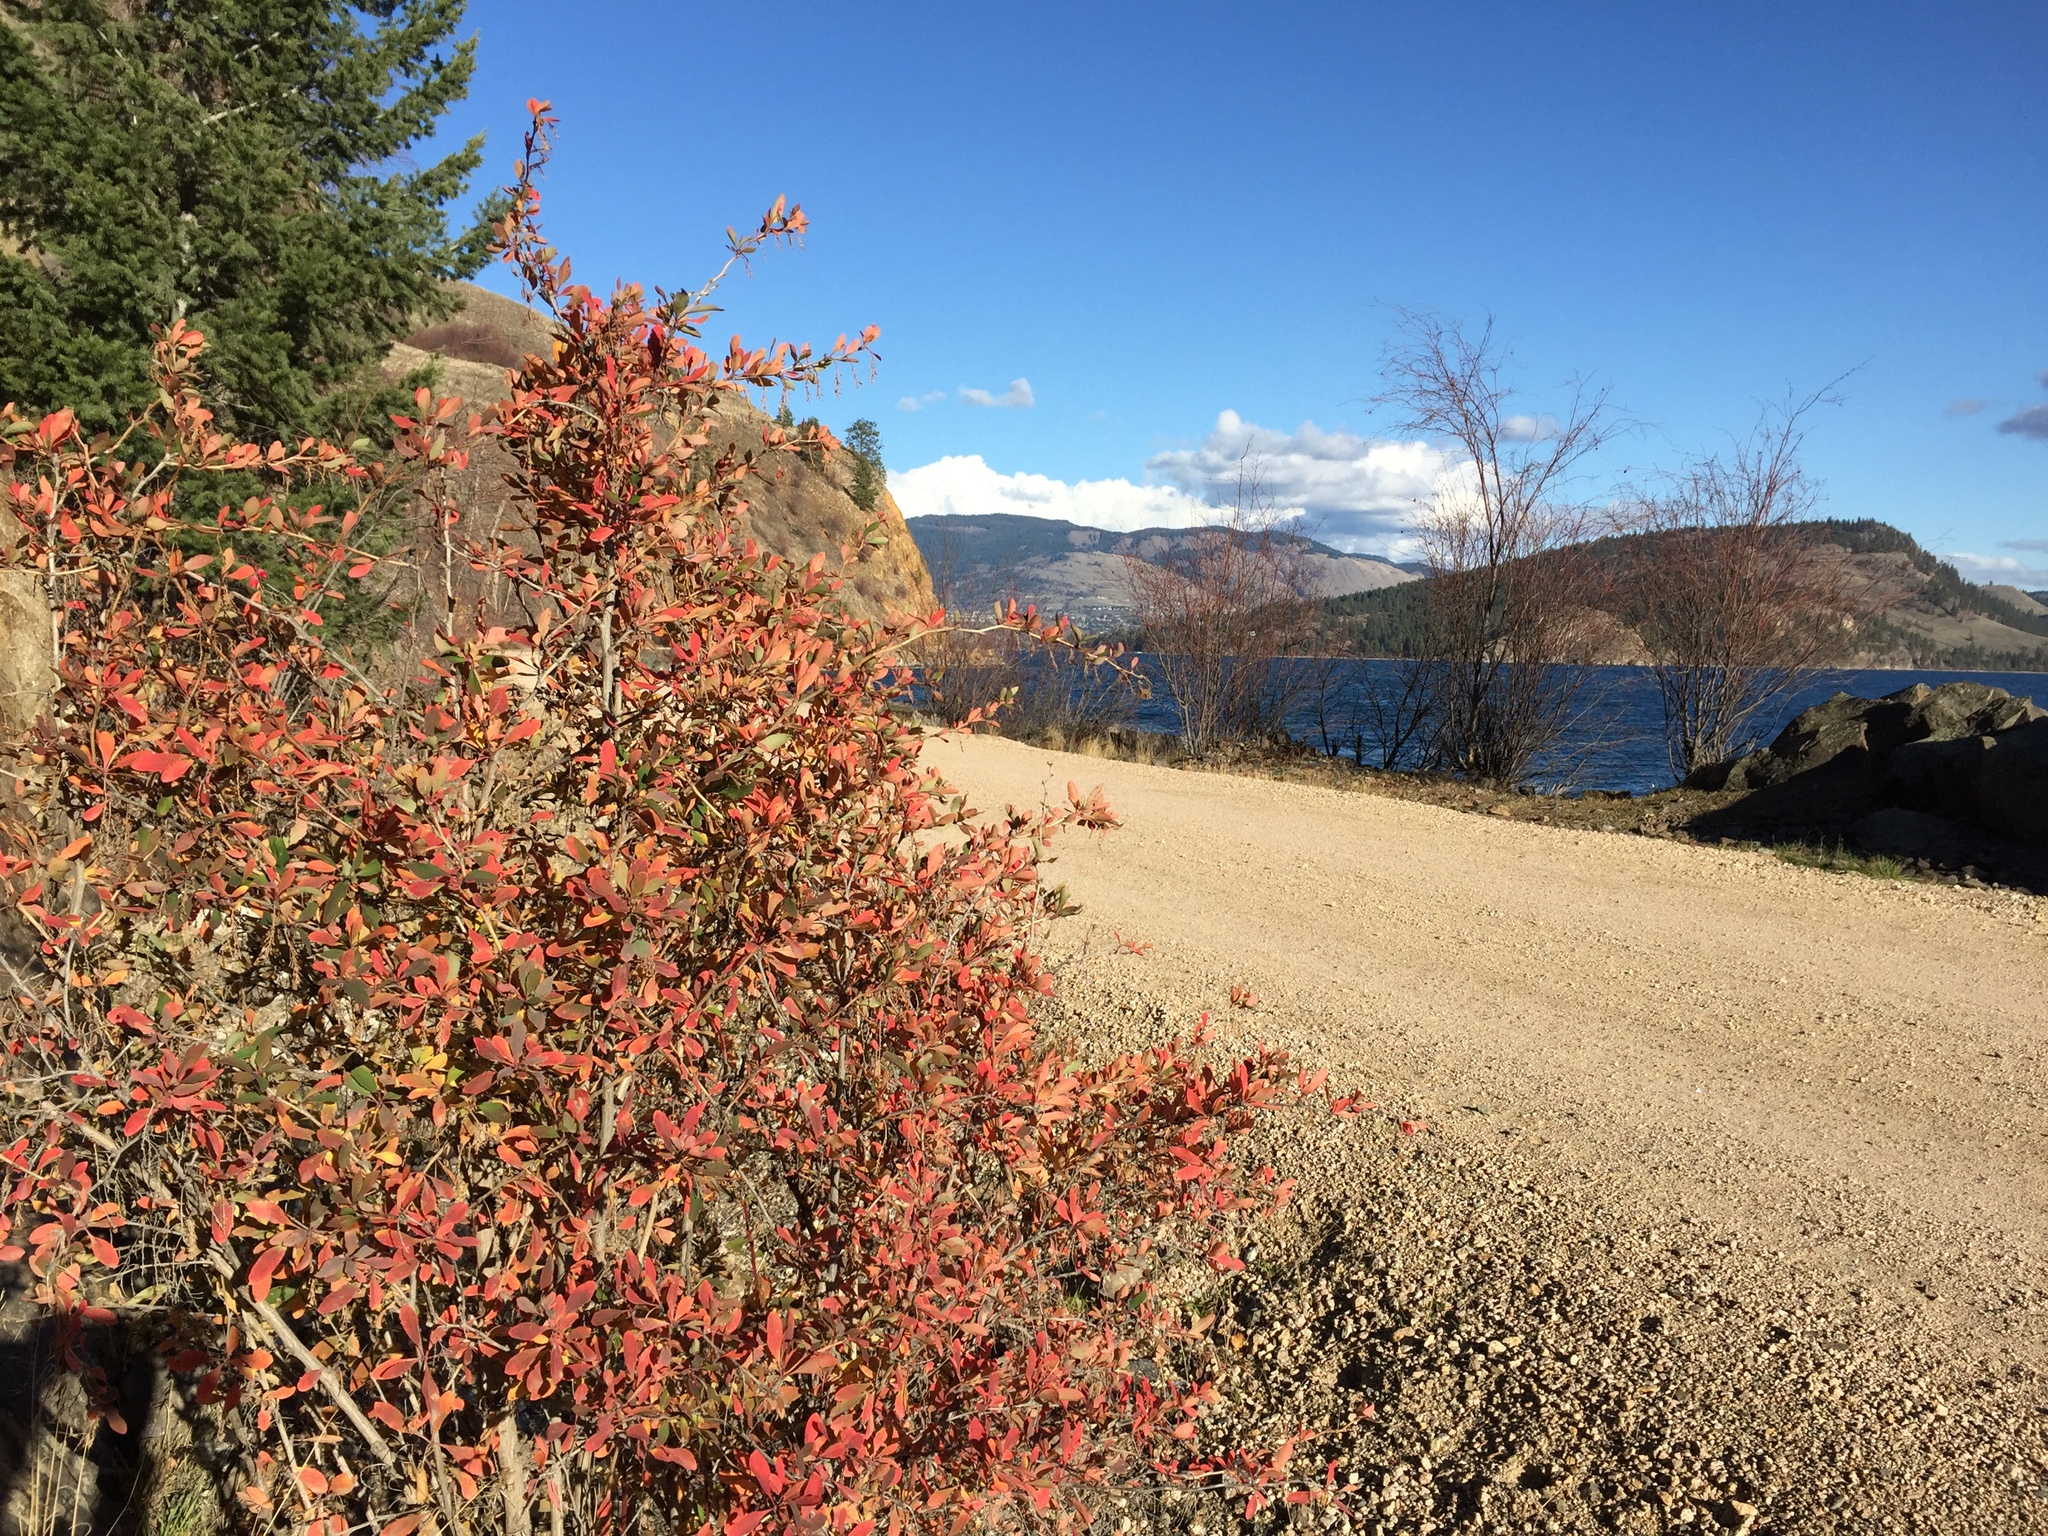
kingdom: Plantae
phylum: Tracheophyta
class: Magnoliopsida
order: Ranunculales
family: Berberidaceae
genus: Berberis
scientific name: Berberis vulgaris
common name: Barberry
